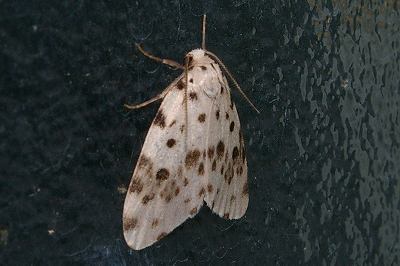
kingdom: Animalia
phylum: Arthropoda
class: Insecta
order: Lepidoptera
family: Erebidae
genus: Siccia
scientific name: Siccia altaica
